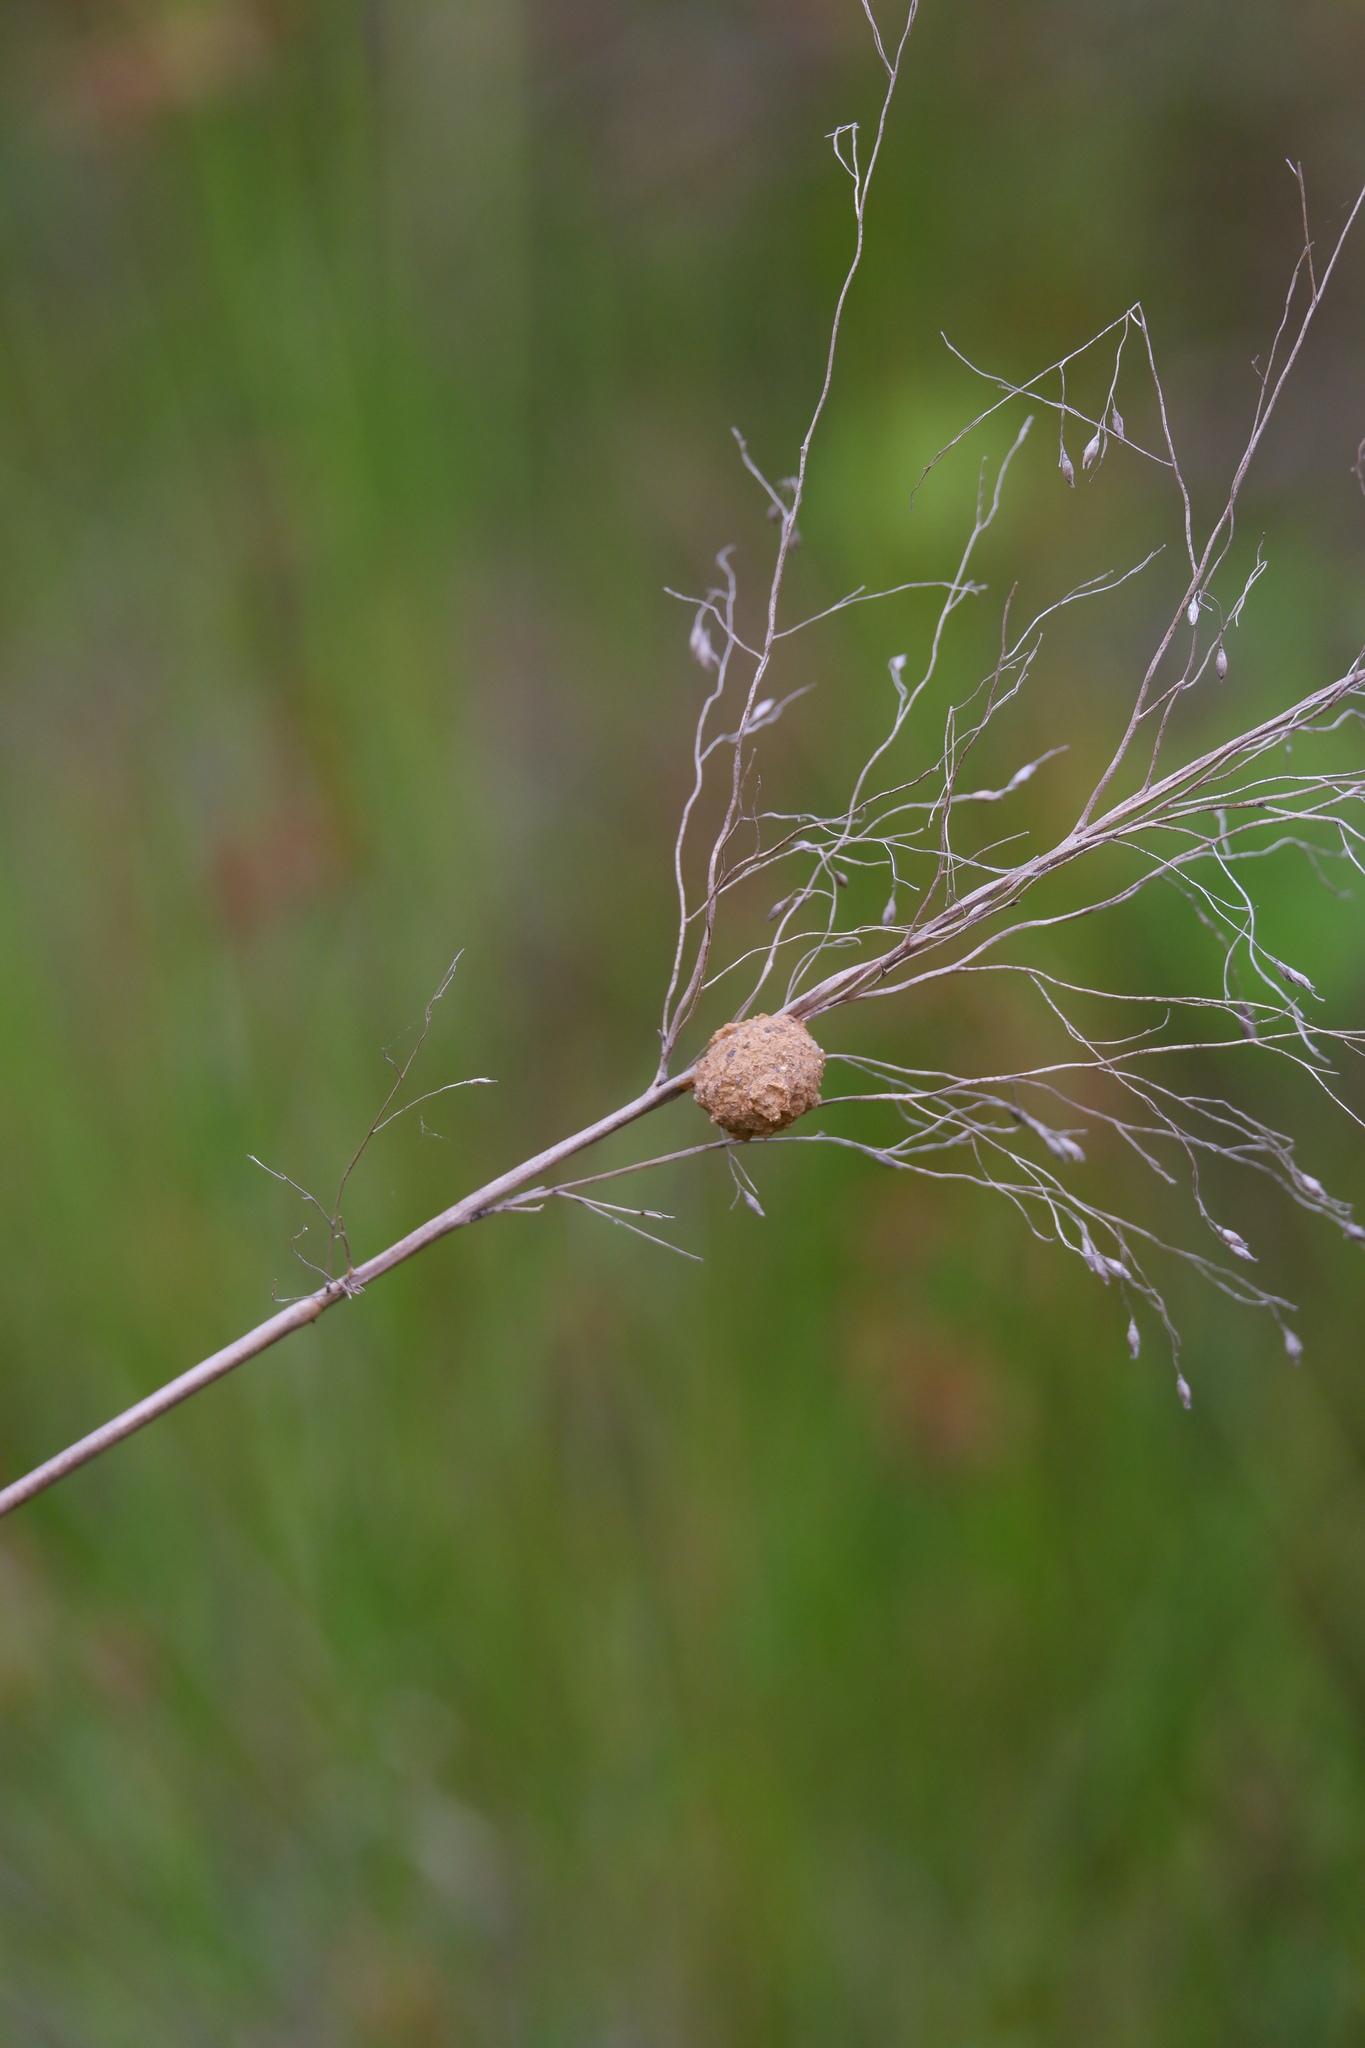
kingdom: Animalia
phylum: Arthropoda
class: Insecta
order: Hymenoptera
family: Vespidae
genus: Eumenes
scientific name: Eumenes
